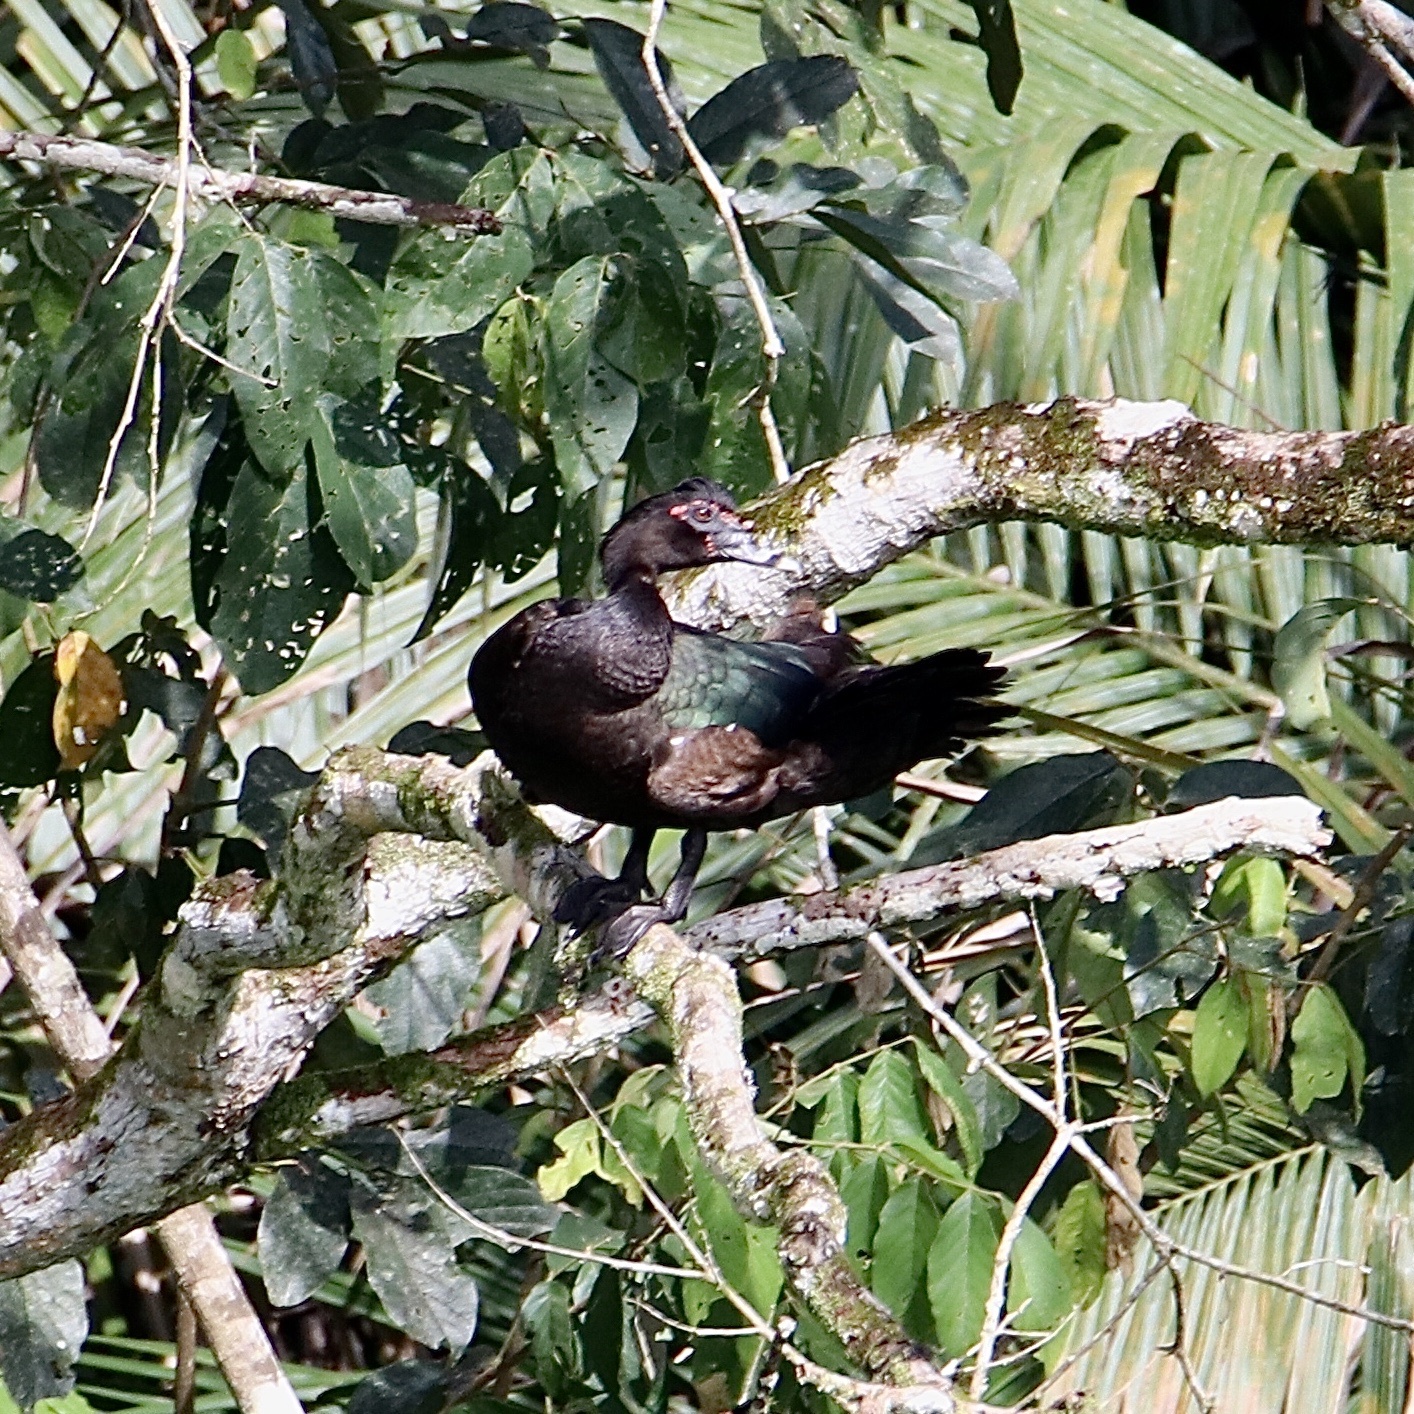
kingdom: Animalia
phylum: Chordata
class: Aves
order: Anseriformes
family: Anatidae
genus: Cairina
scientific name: Cairina moschata
